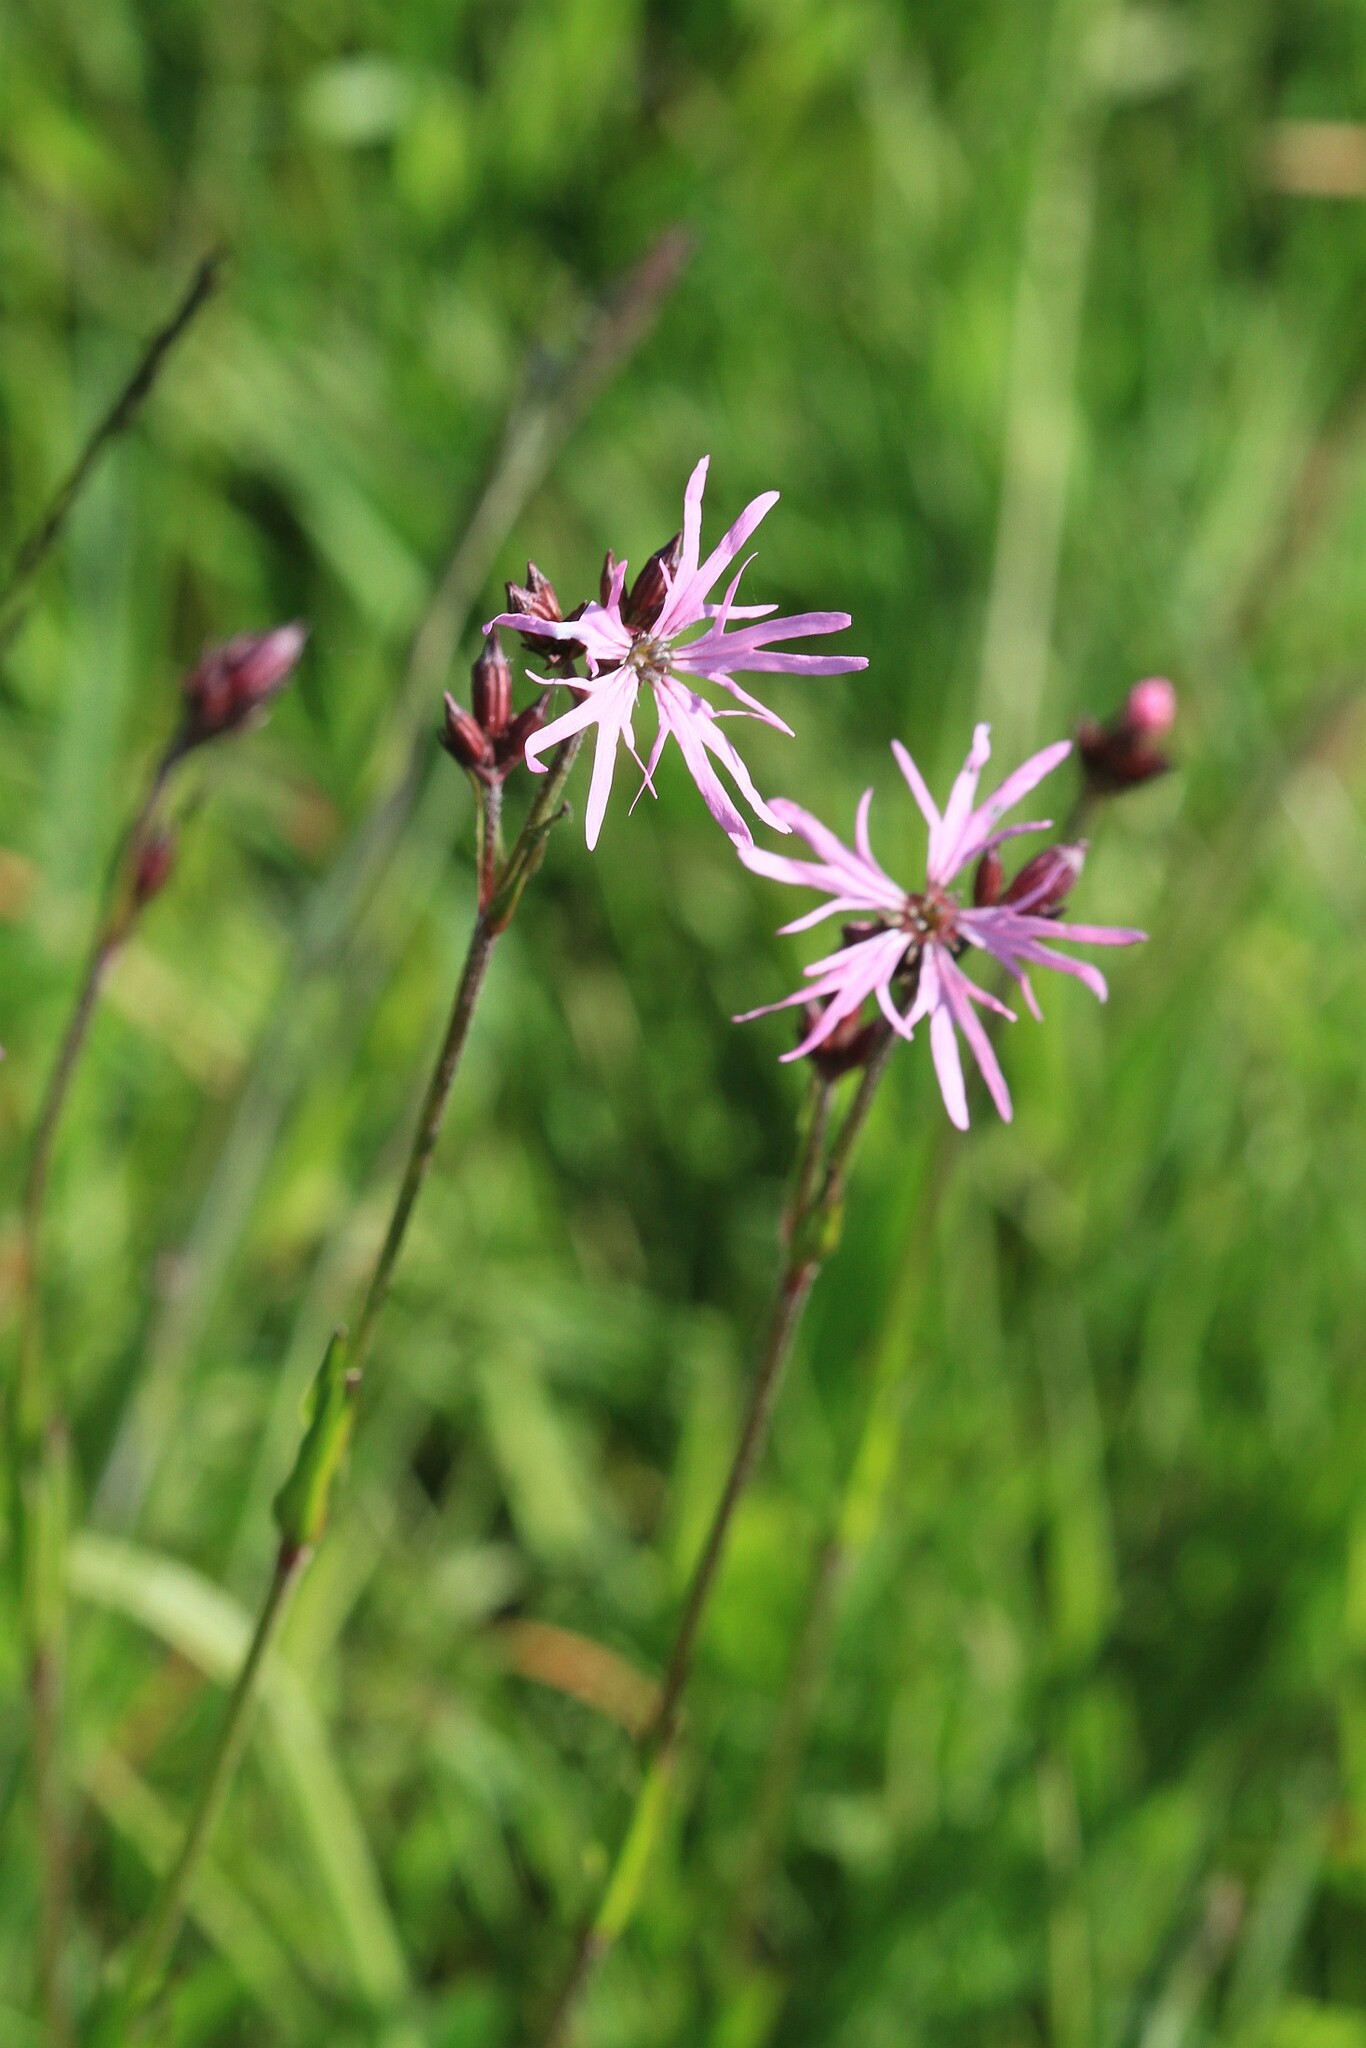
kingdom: Plantae
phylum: Tracheophyta
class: Magnoliopsida
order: Caryophyllales
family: Caryophyllaceae
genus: Silene
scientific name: Silene flos-cuculi
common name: Ragged-robin
